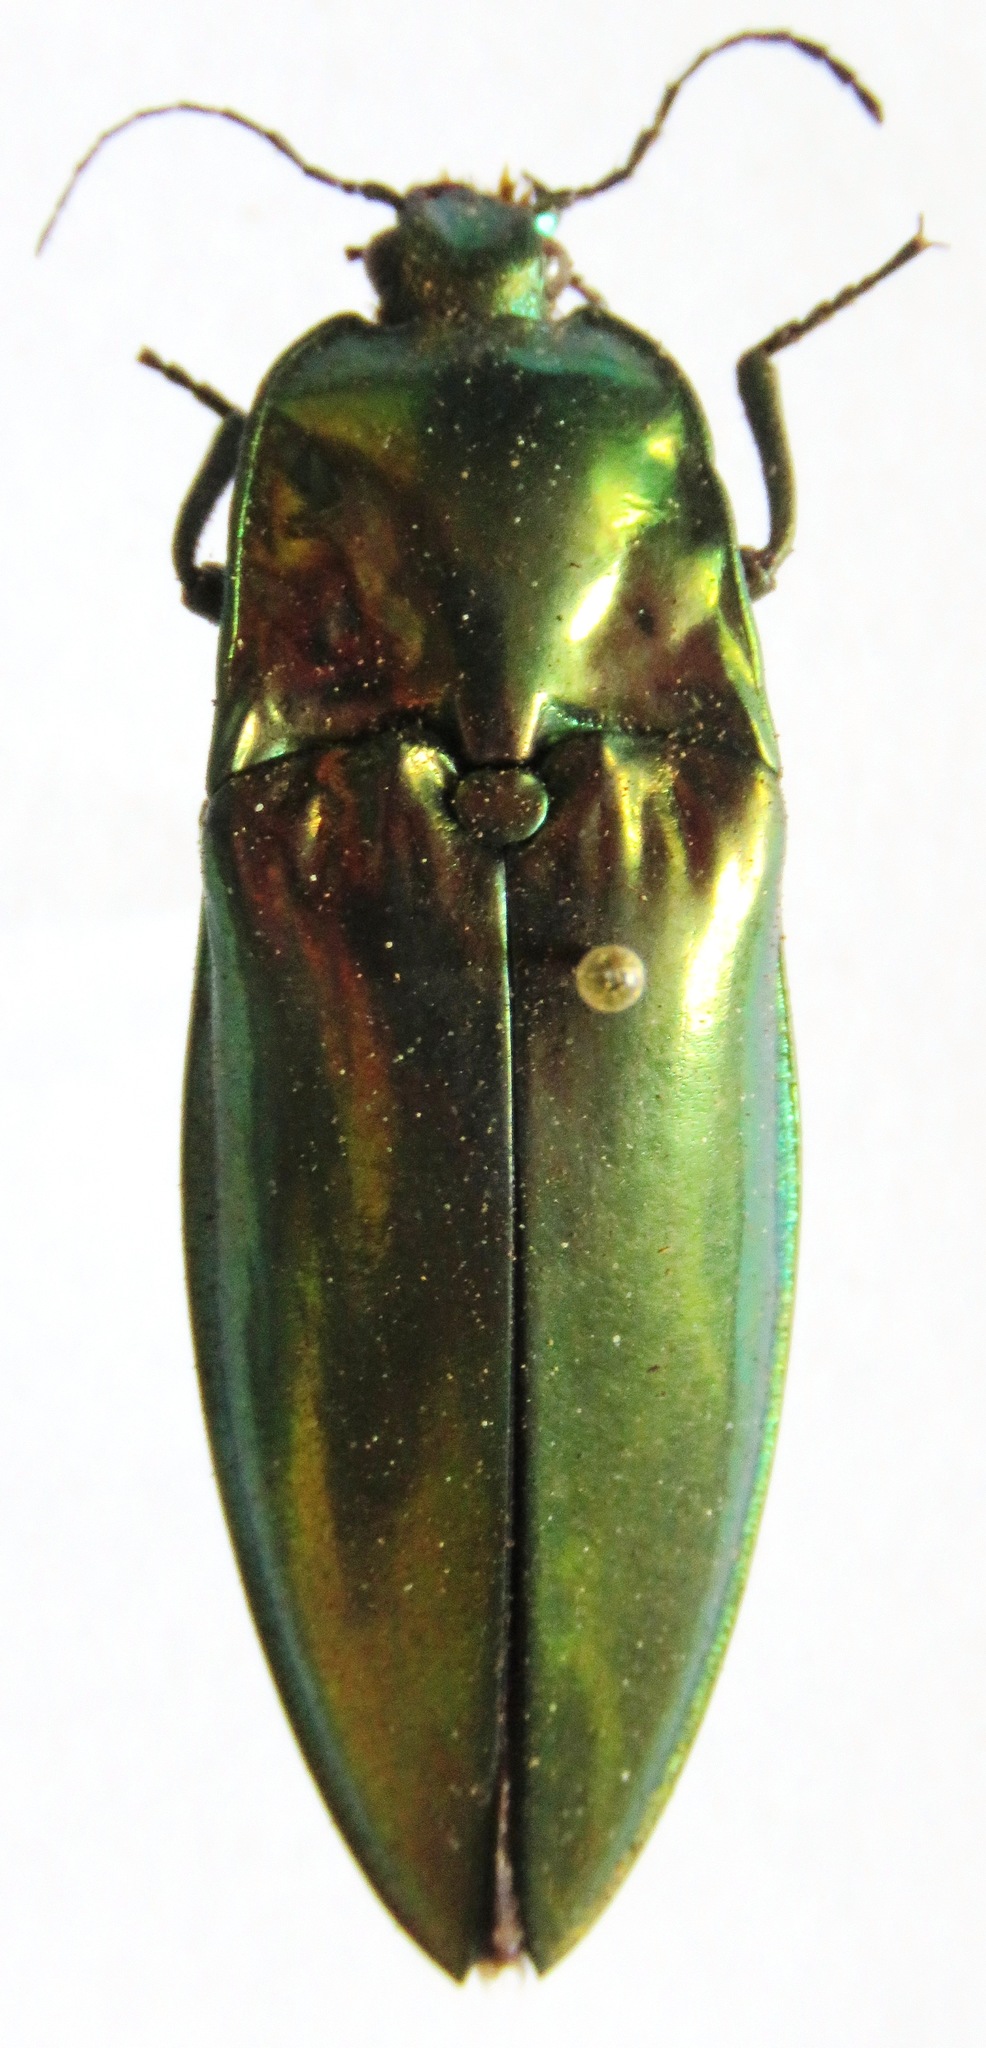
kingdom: Animalia
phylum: Arthropoda
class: Insecta
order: Coleoptera
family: Elateridae
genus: Campsosternus
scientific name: Campsosternus
